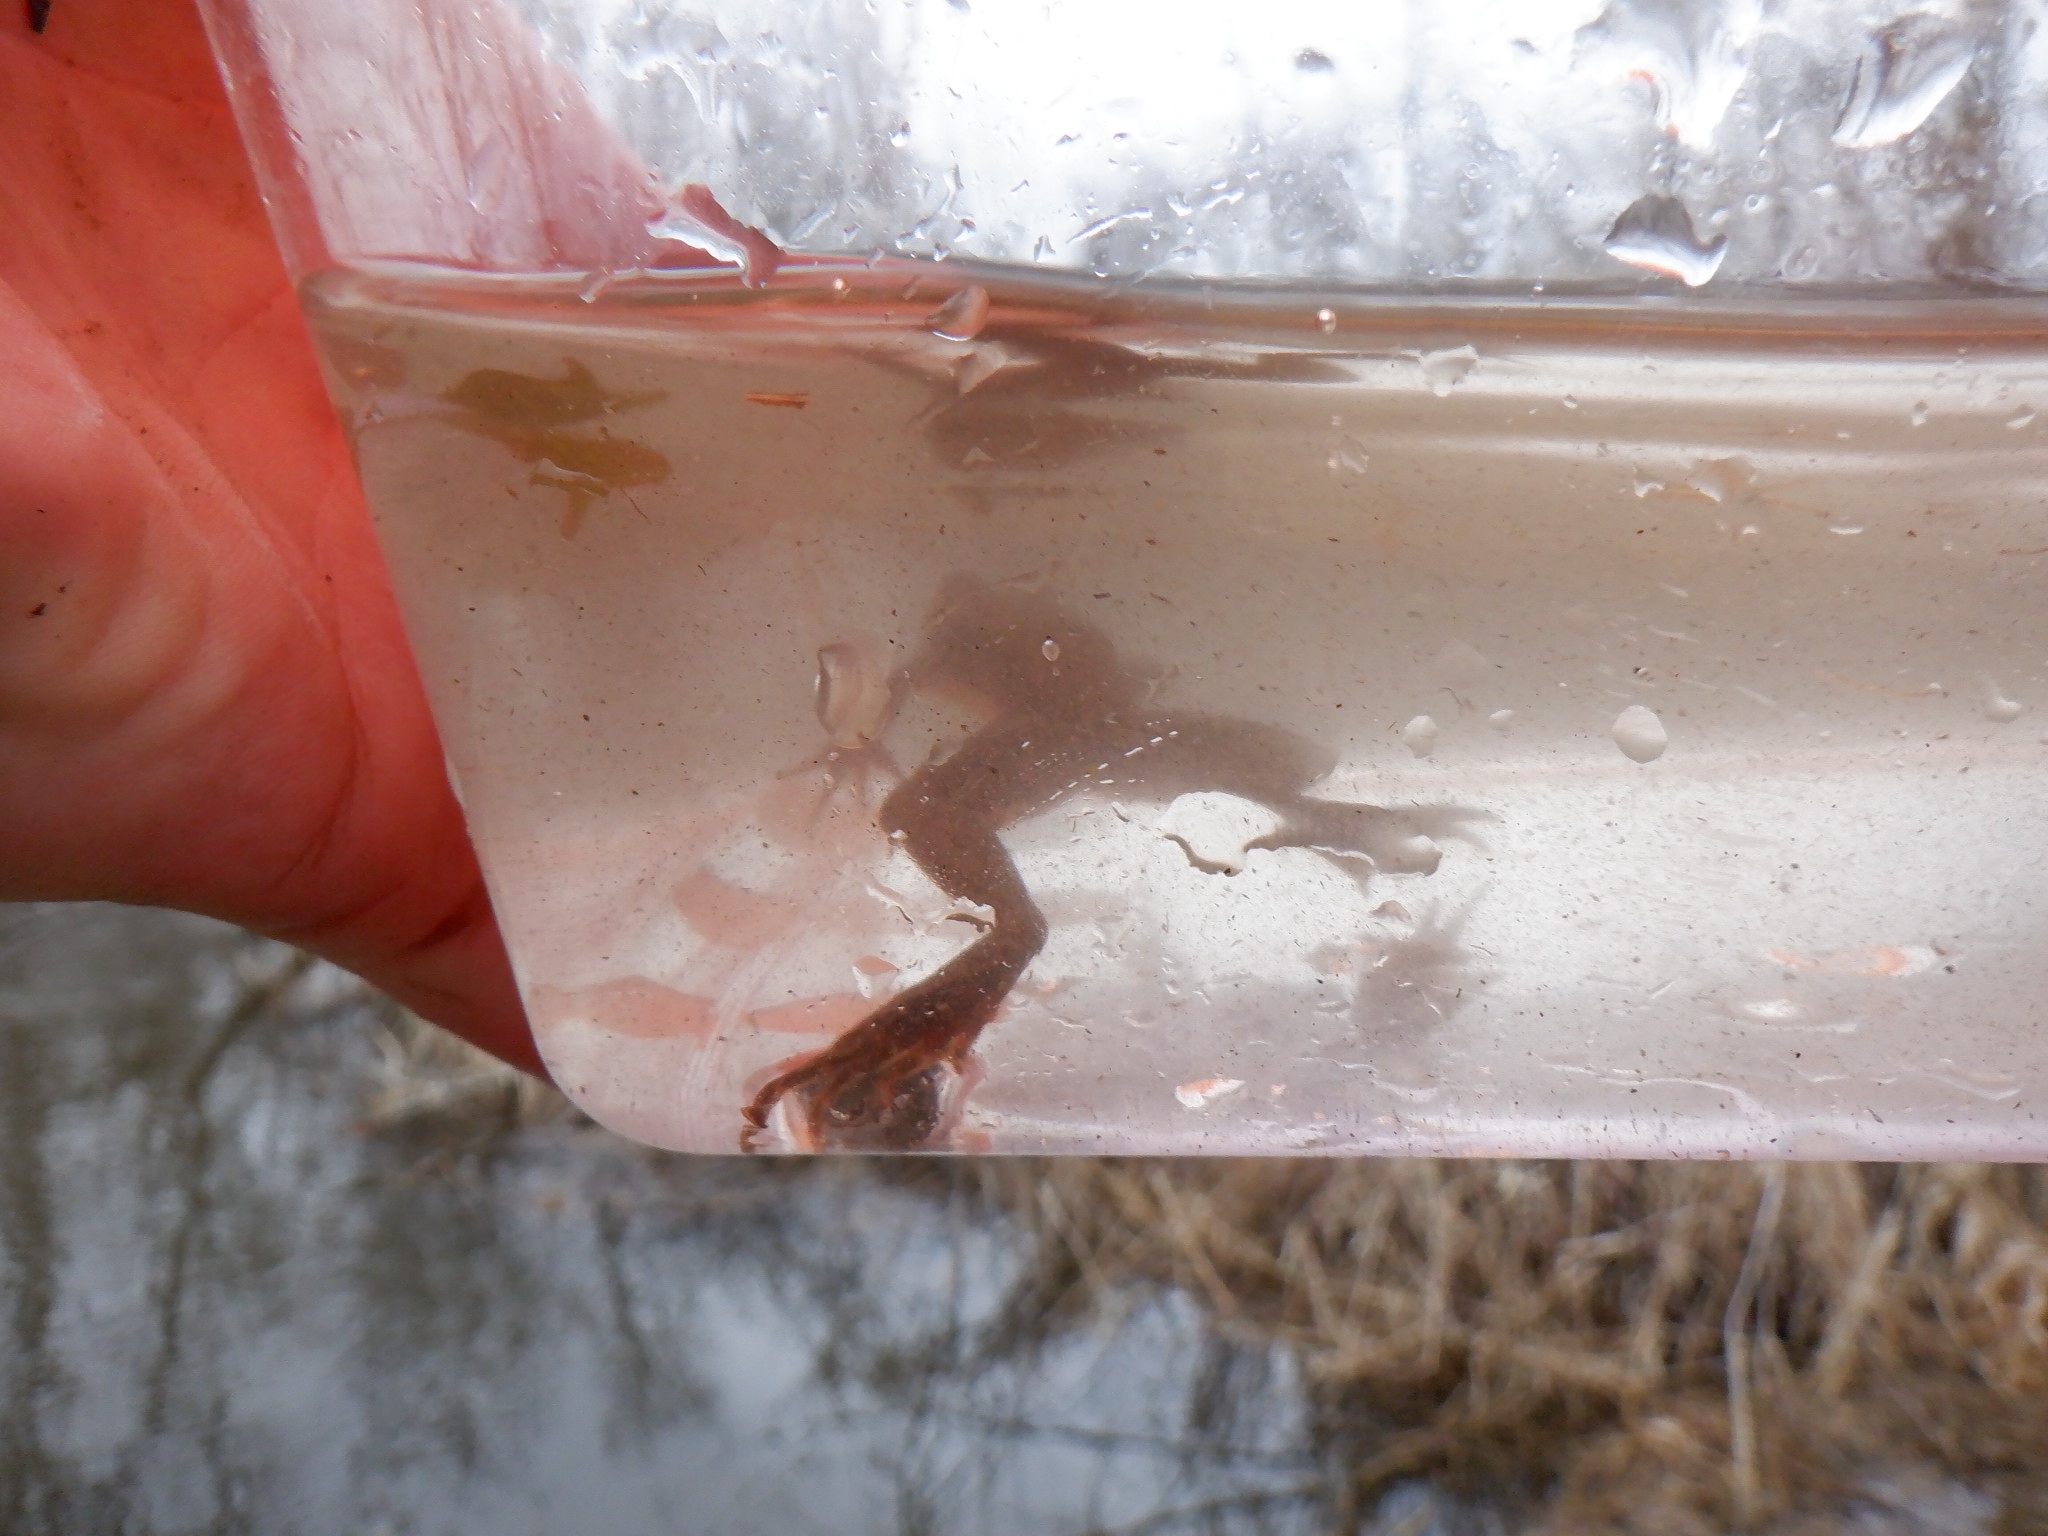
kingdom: Animalia
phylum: Chordata
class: Amphibia
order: Anura
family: Ranidae
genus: Lithobates
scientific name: Lithobates clamitans
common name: Green frog
